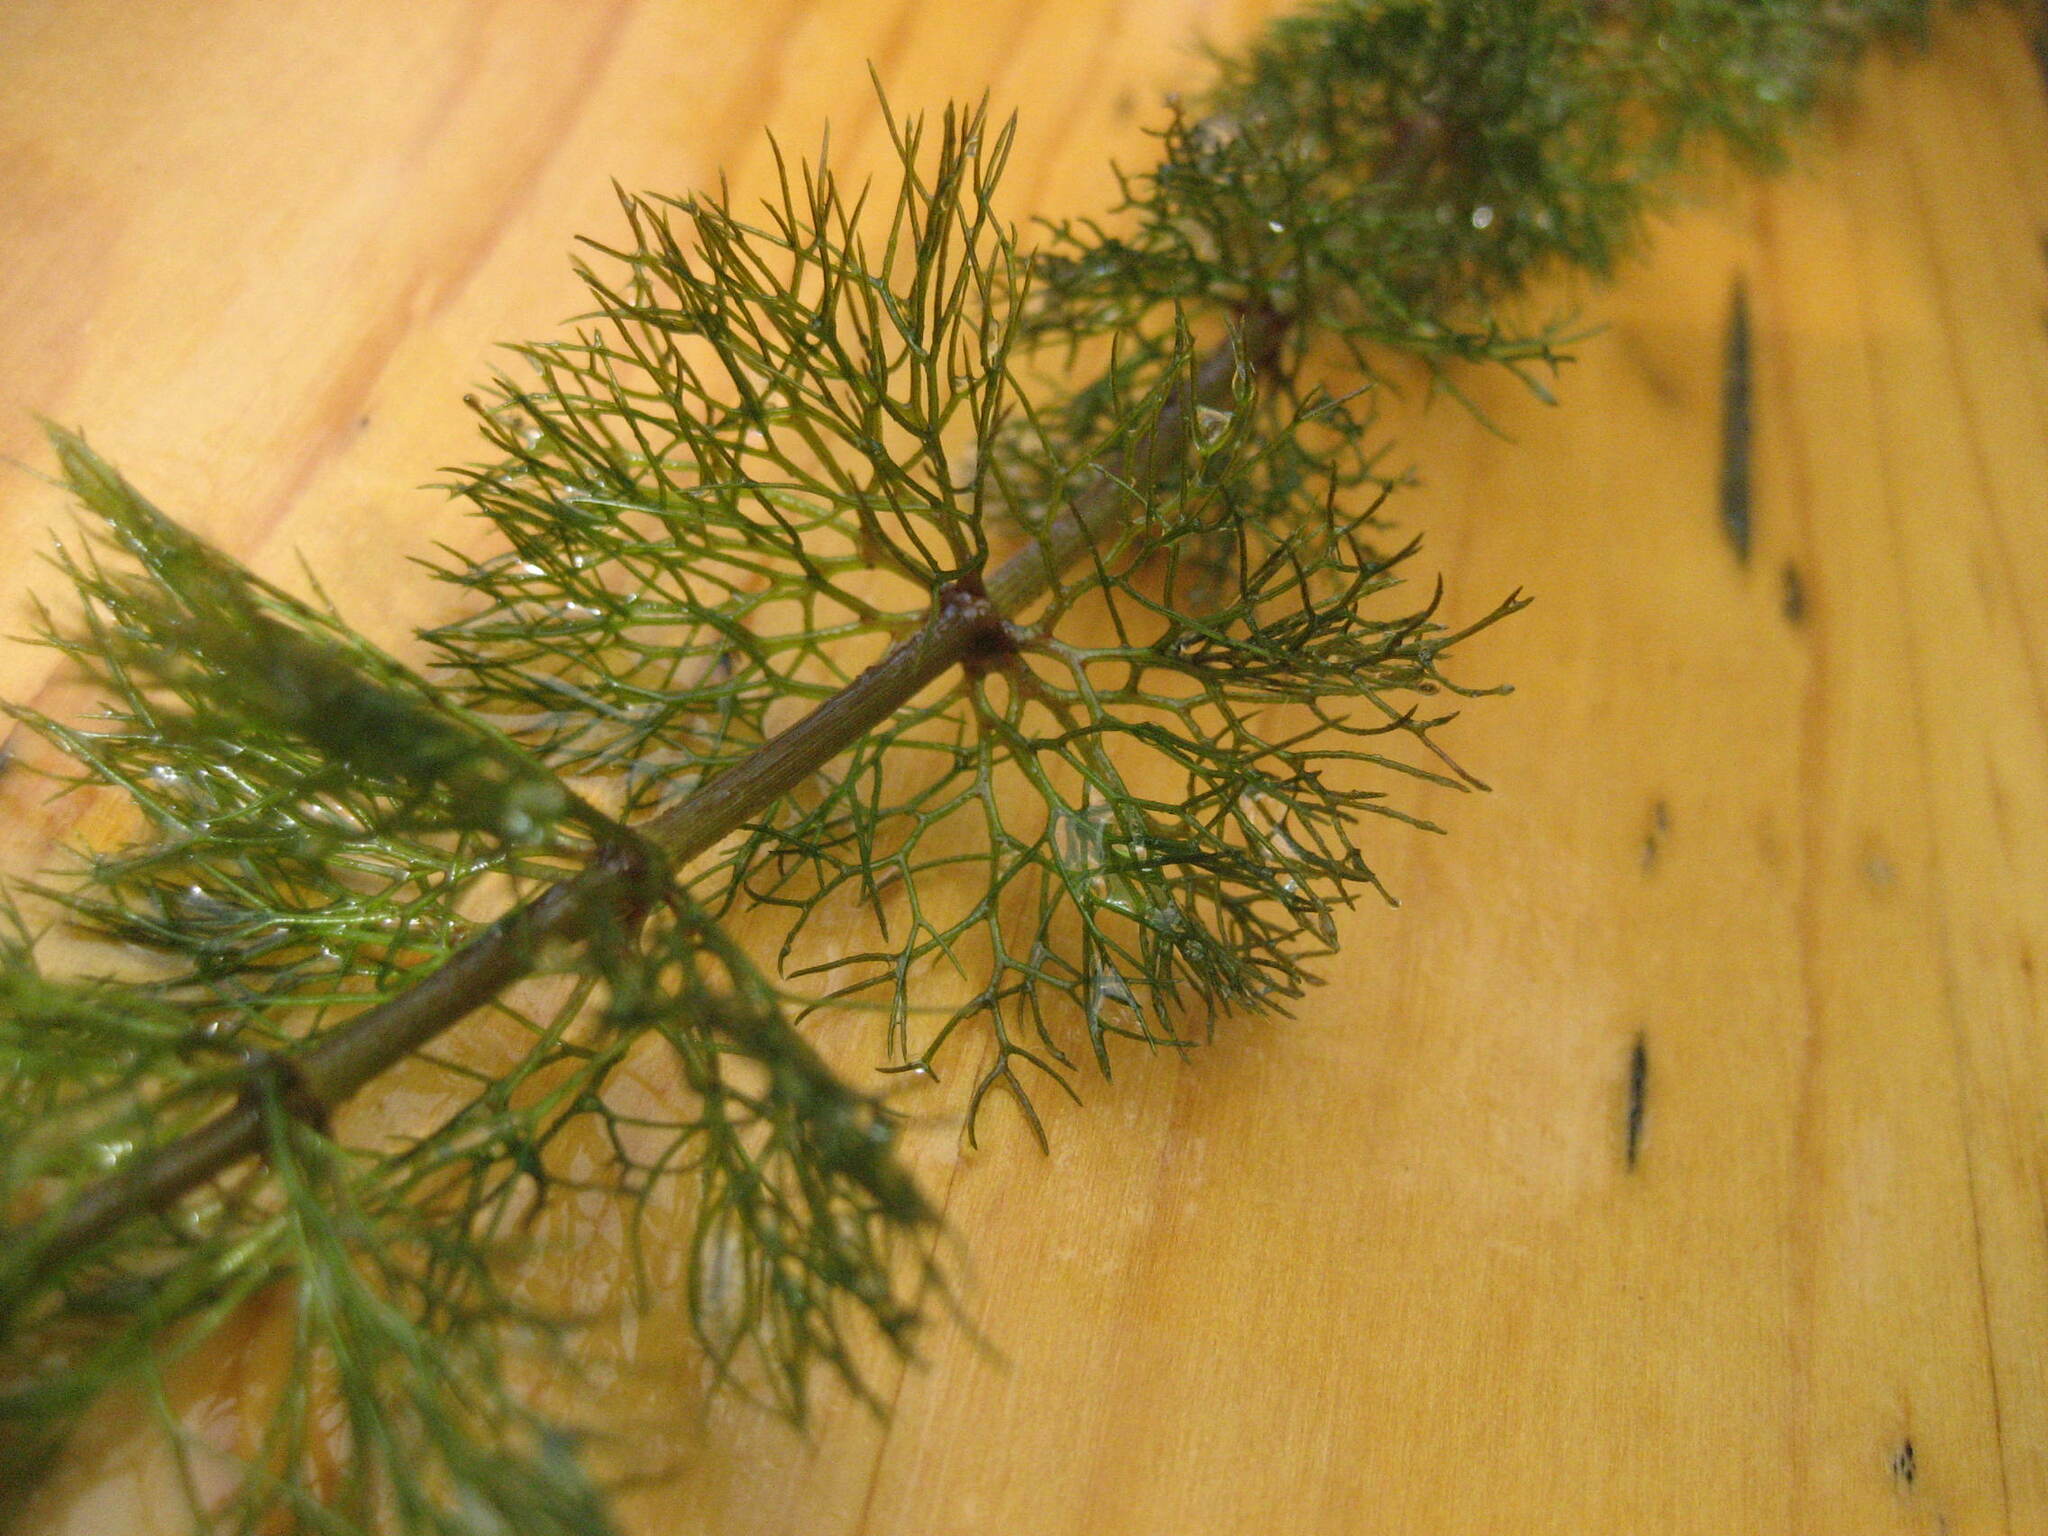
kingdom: Plantae
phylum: Tracheophyta
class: Magnoliopsida
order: Asterales
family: Asteraceae
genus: Bidens
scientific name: Bidens beckii
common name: Beck's beggarticks
